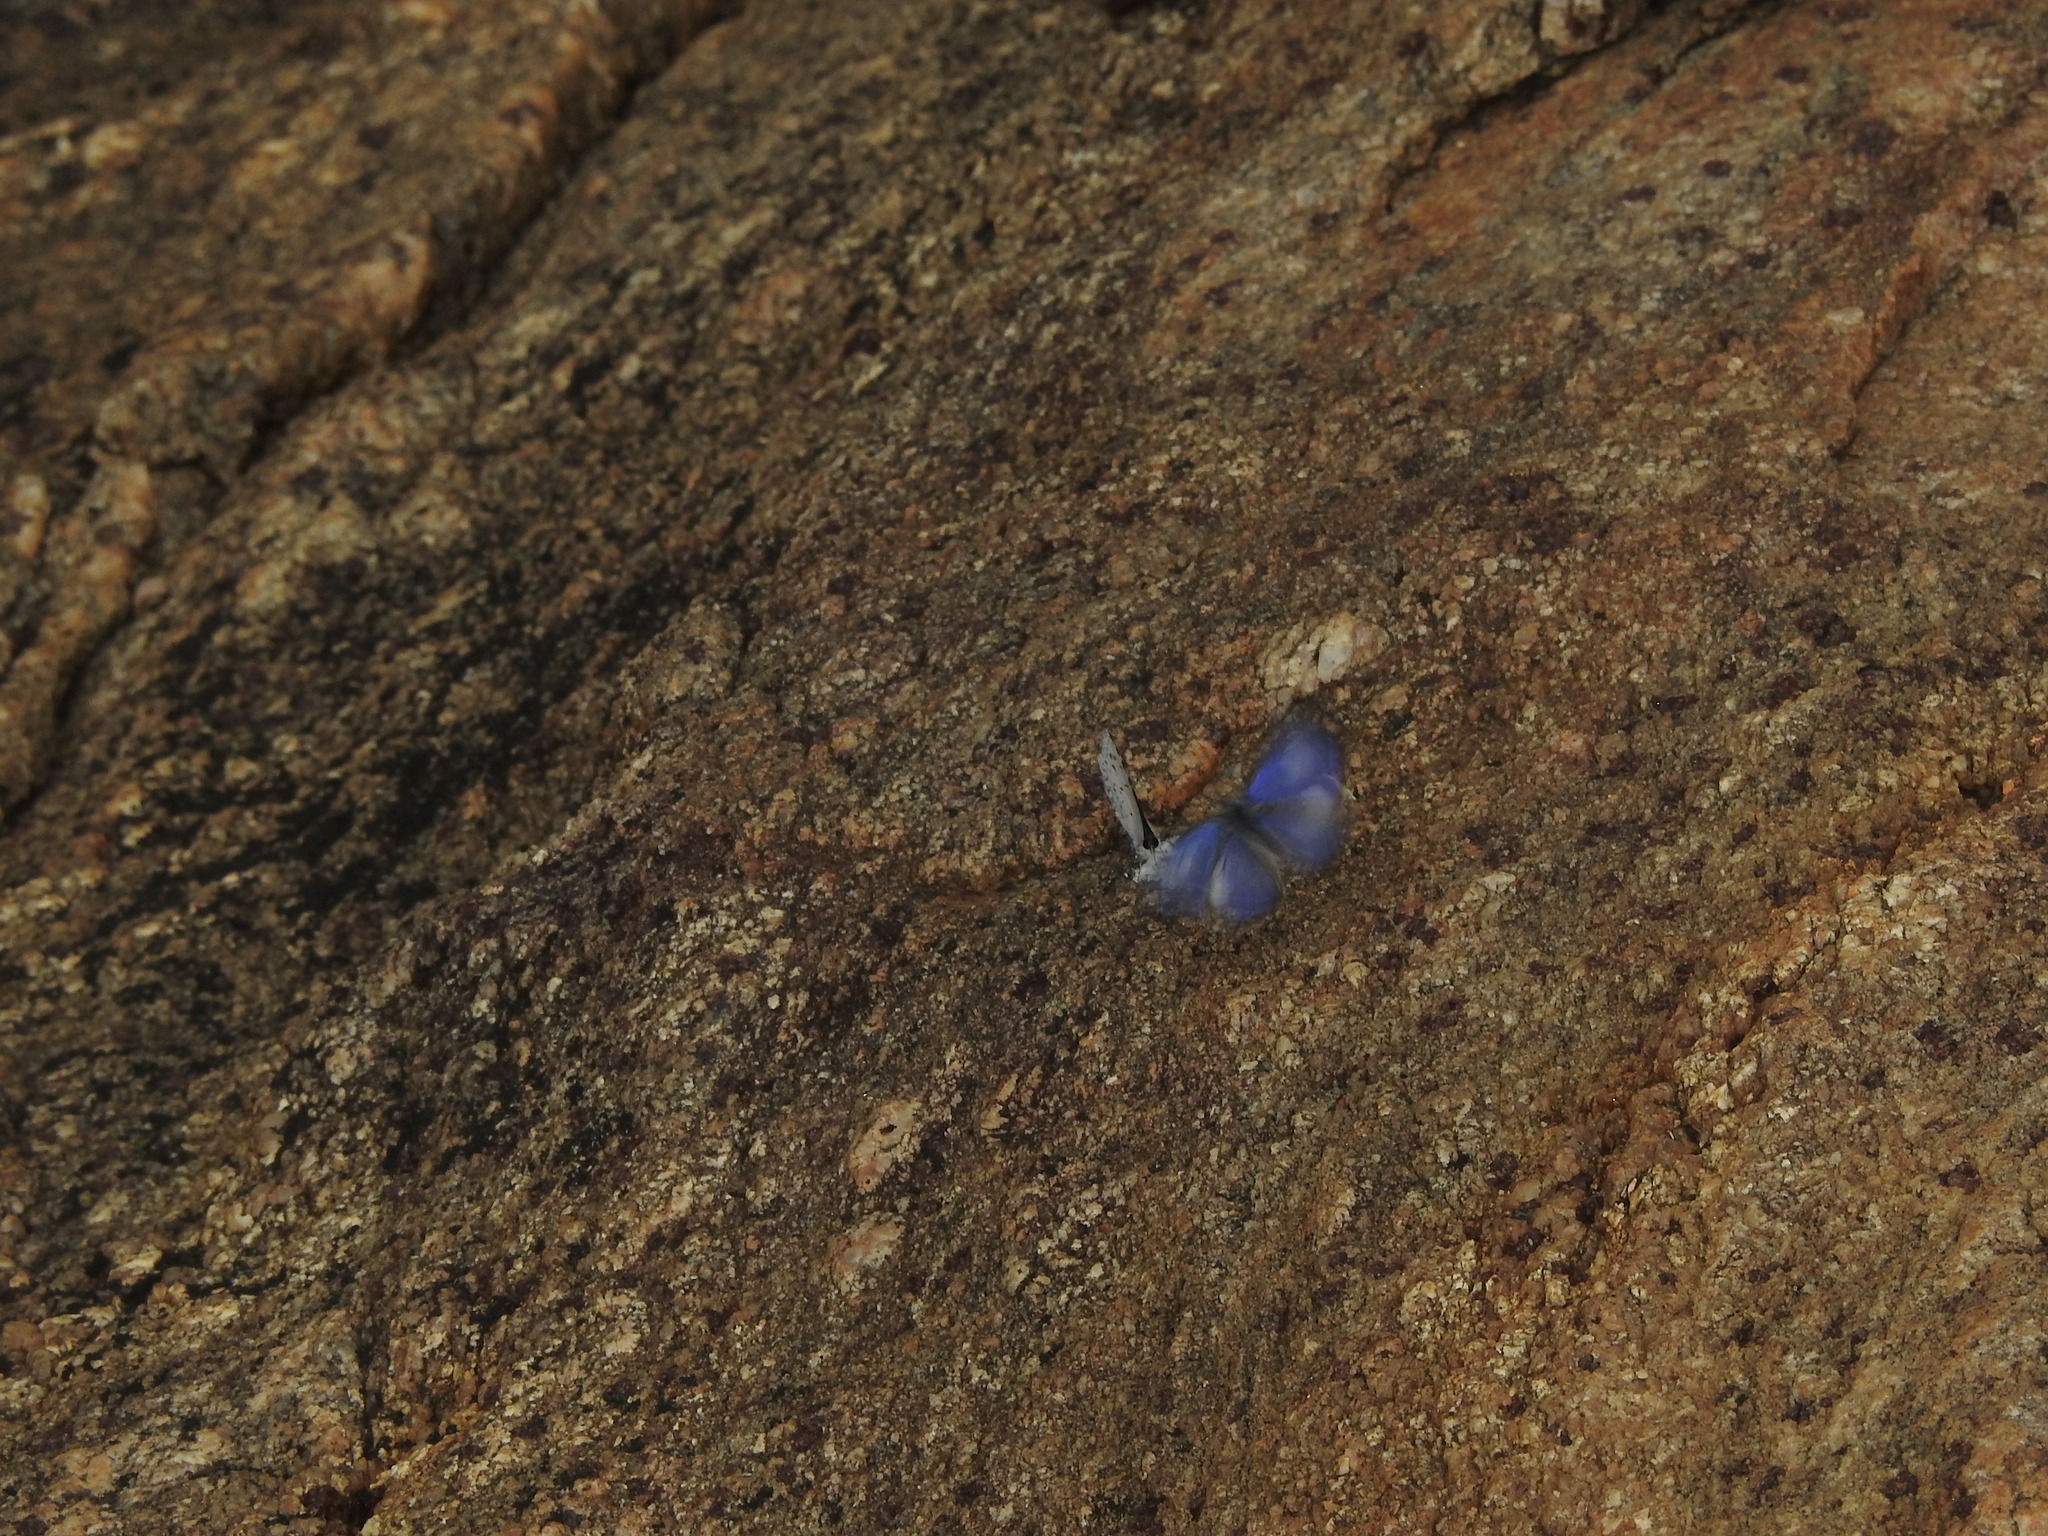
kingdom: Animalia
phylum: Arthropoda
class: Insecta
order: Lepidoptera
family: Lycaenidae
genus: Celatoxia
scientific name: Celatoxia
